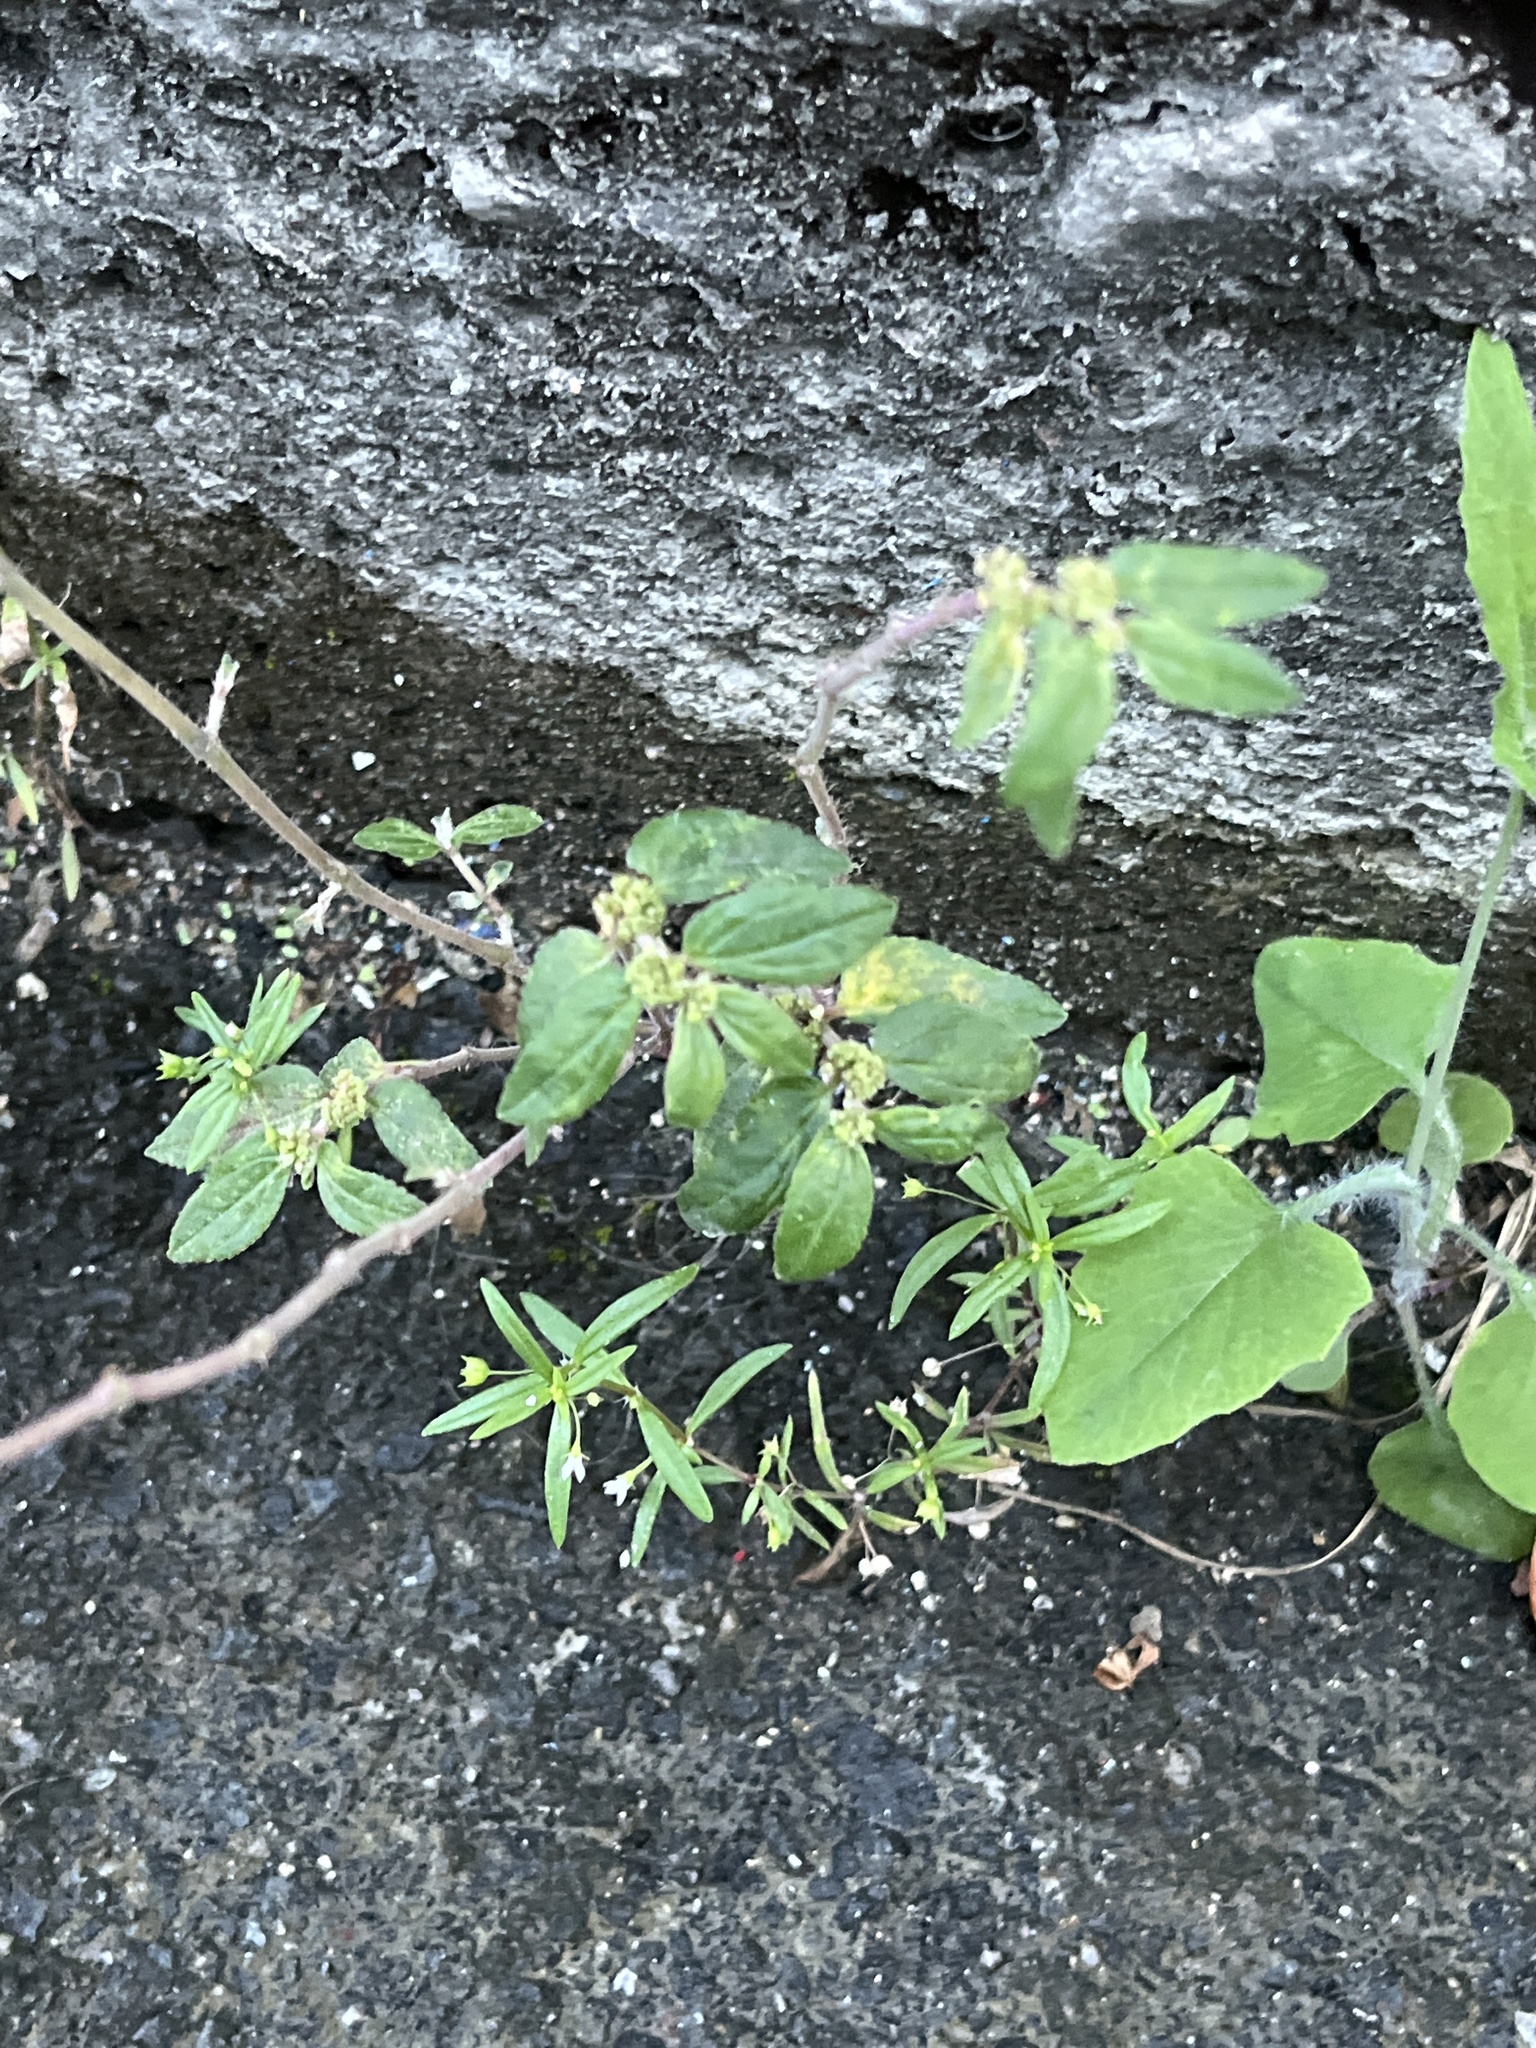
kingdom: Plantae
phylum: Tracheophyta
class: Magnoliopsida
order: Malpighiales
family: Euphorbiaceae
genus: Euphorbia
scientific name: Euphorbia hirta
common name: Pillpod sandmat
